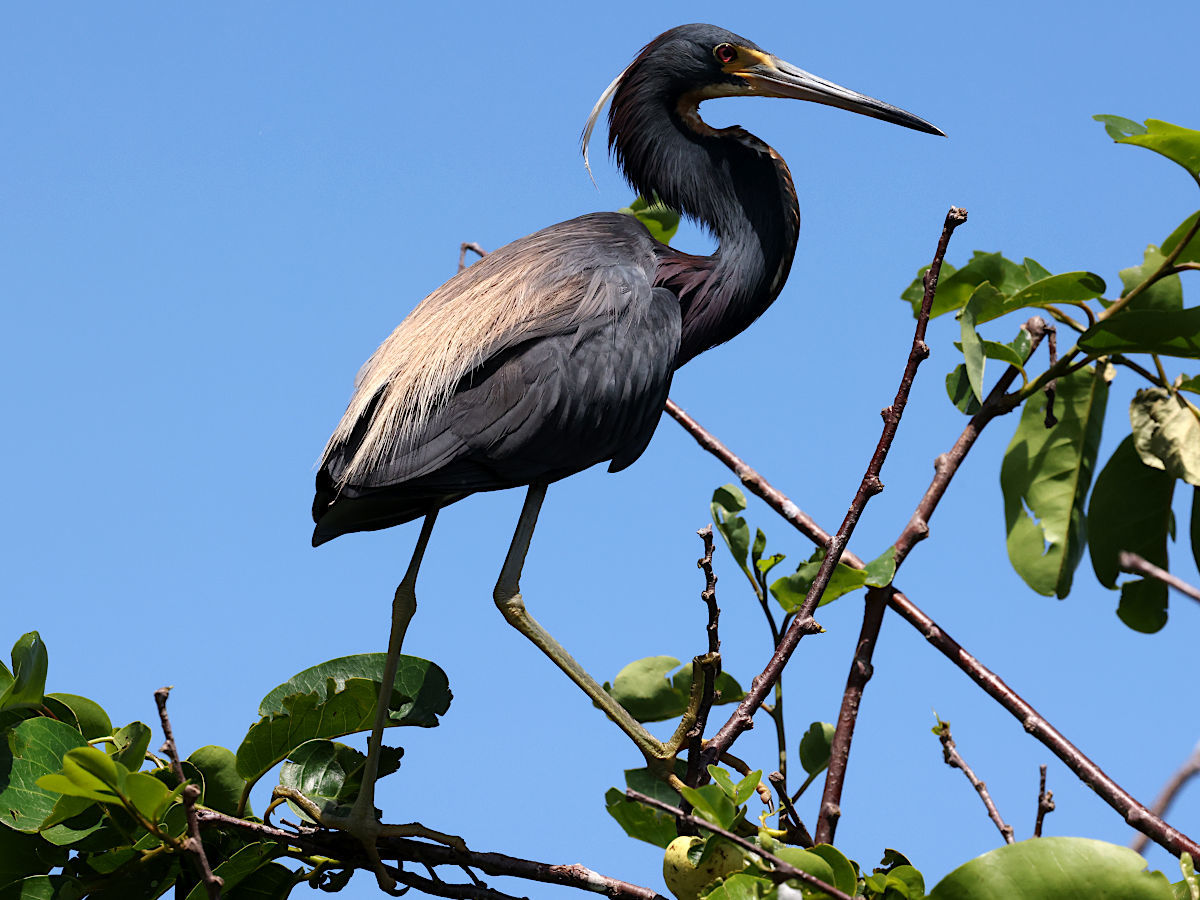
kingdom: Animalia
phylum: Chordata
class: Aves
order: Pelecaniformes
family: Ardeidae
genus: Egretta
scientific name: Egretta tricolor
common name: Tricolored heron
